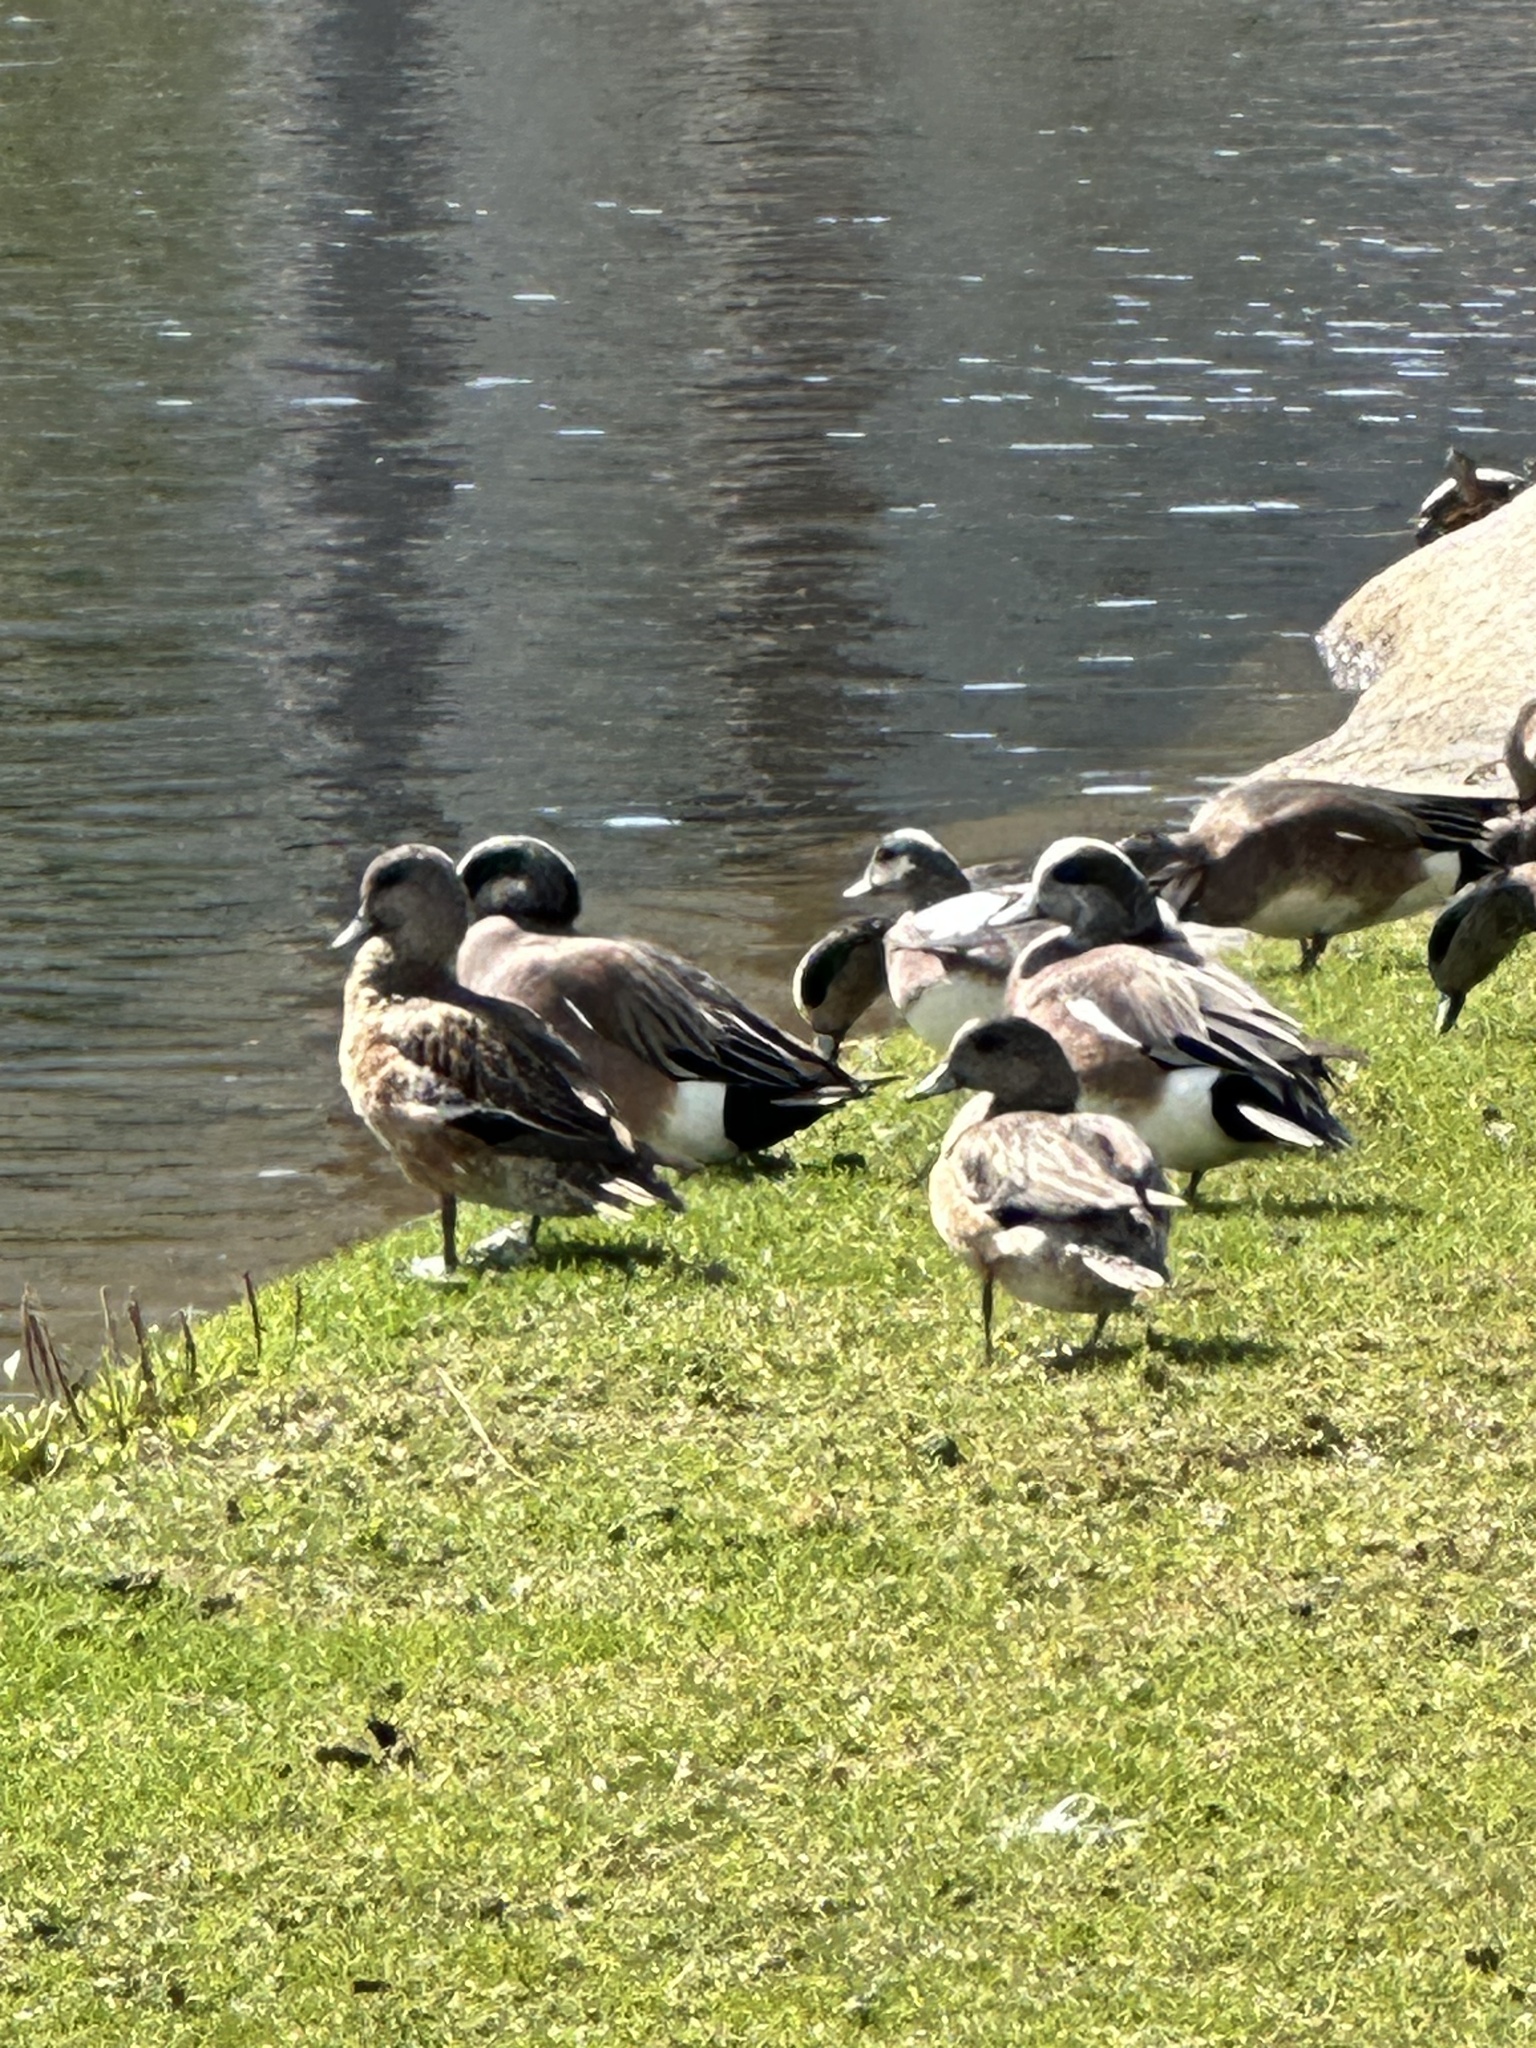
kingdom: Animalia
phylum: Chordata
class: Aves
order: Anseriformes
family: Anatidae
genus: Mareca
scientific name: Mareca americana
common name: American wigeon
